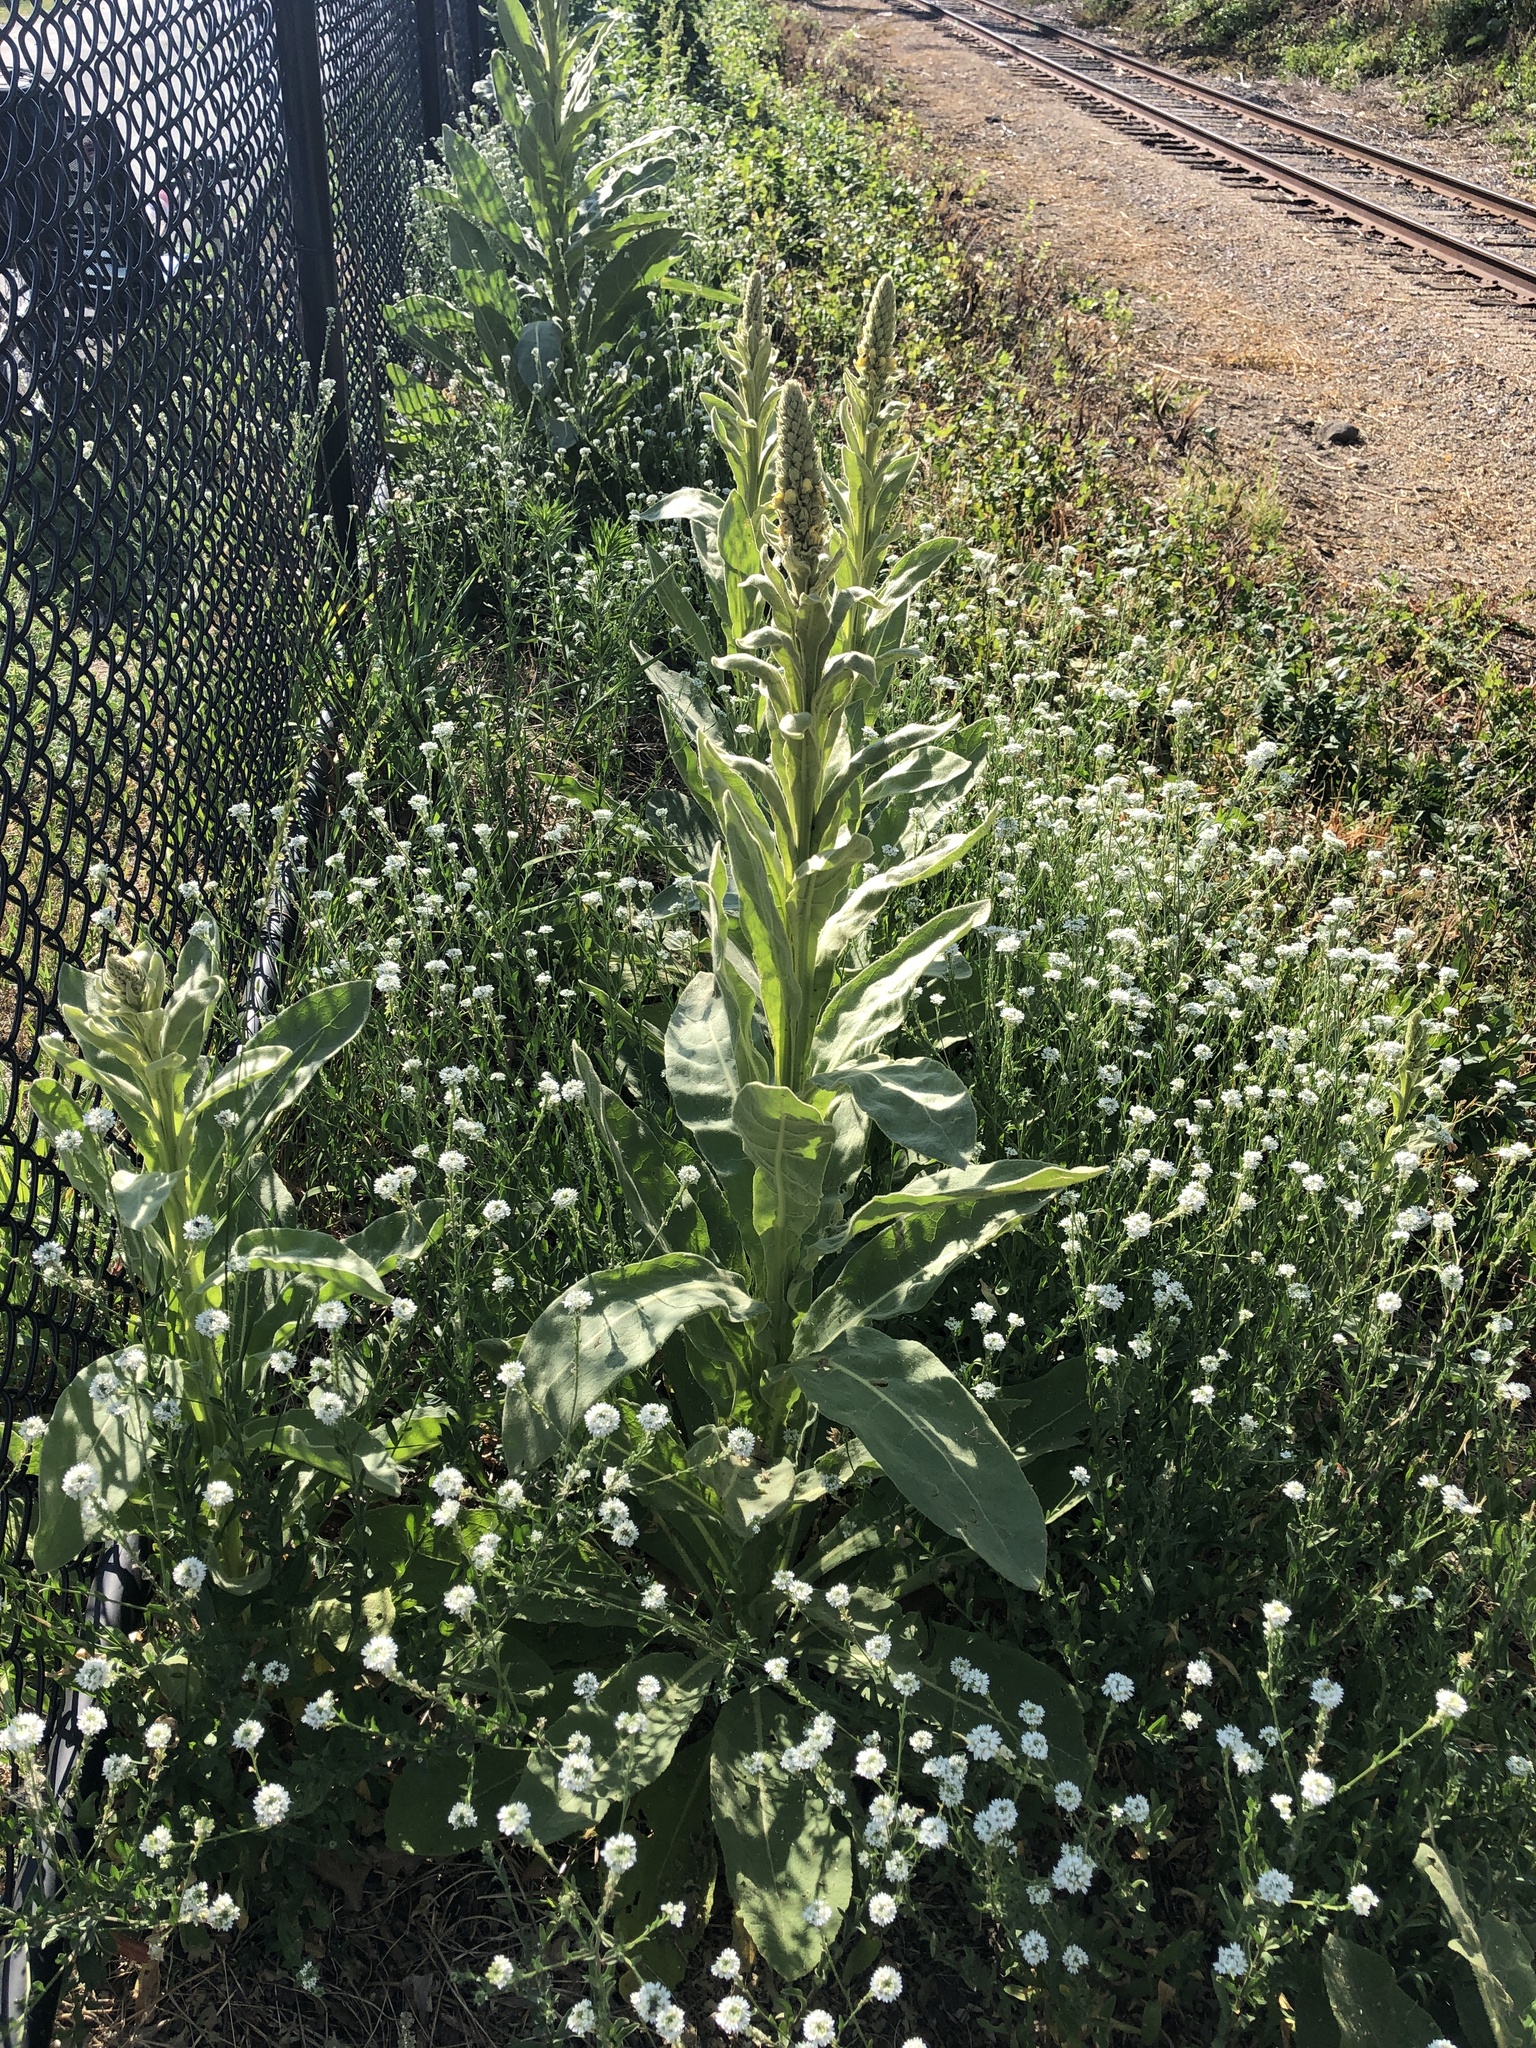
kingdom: Plantae
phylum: Tracheophyta
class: Magnoliopsida
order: Lamiales
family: Scrophulariaceae
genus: Verbascum
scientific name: Verbascum thapsus
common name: Common mullein
